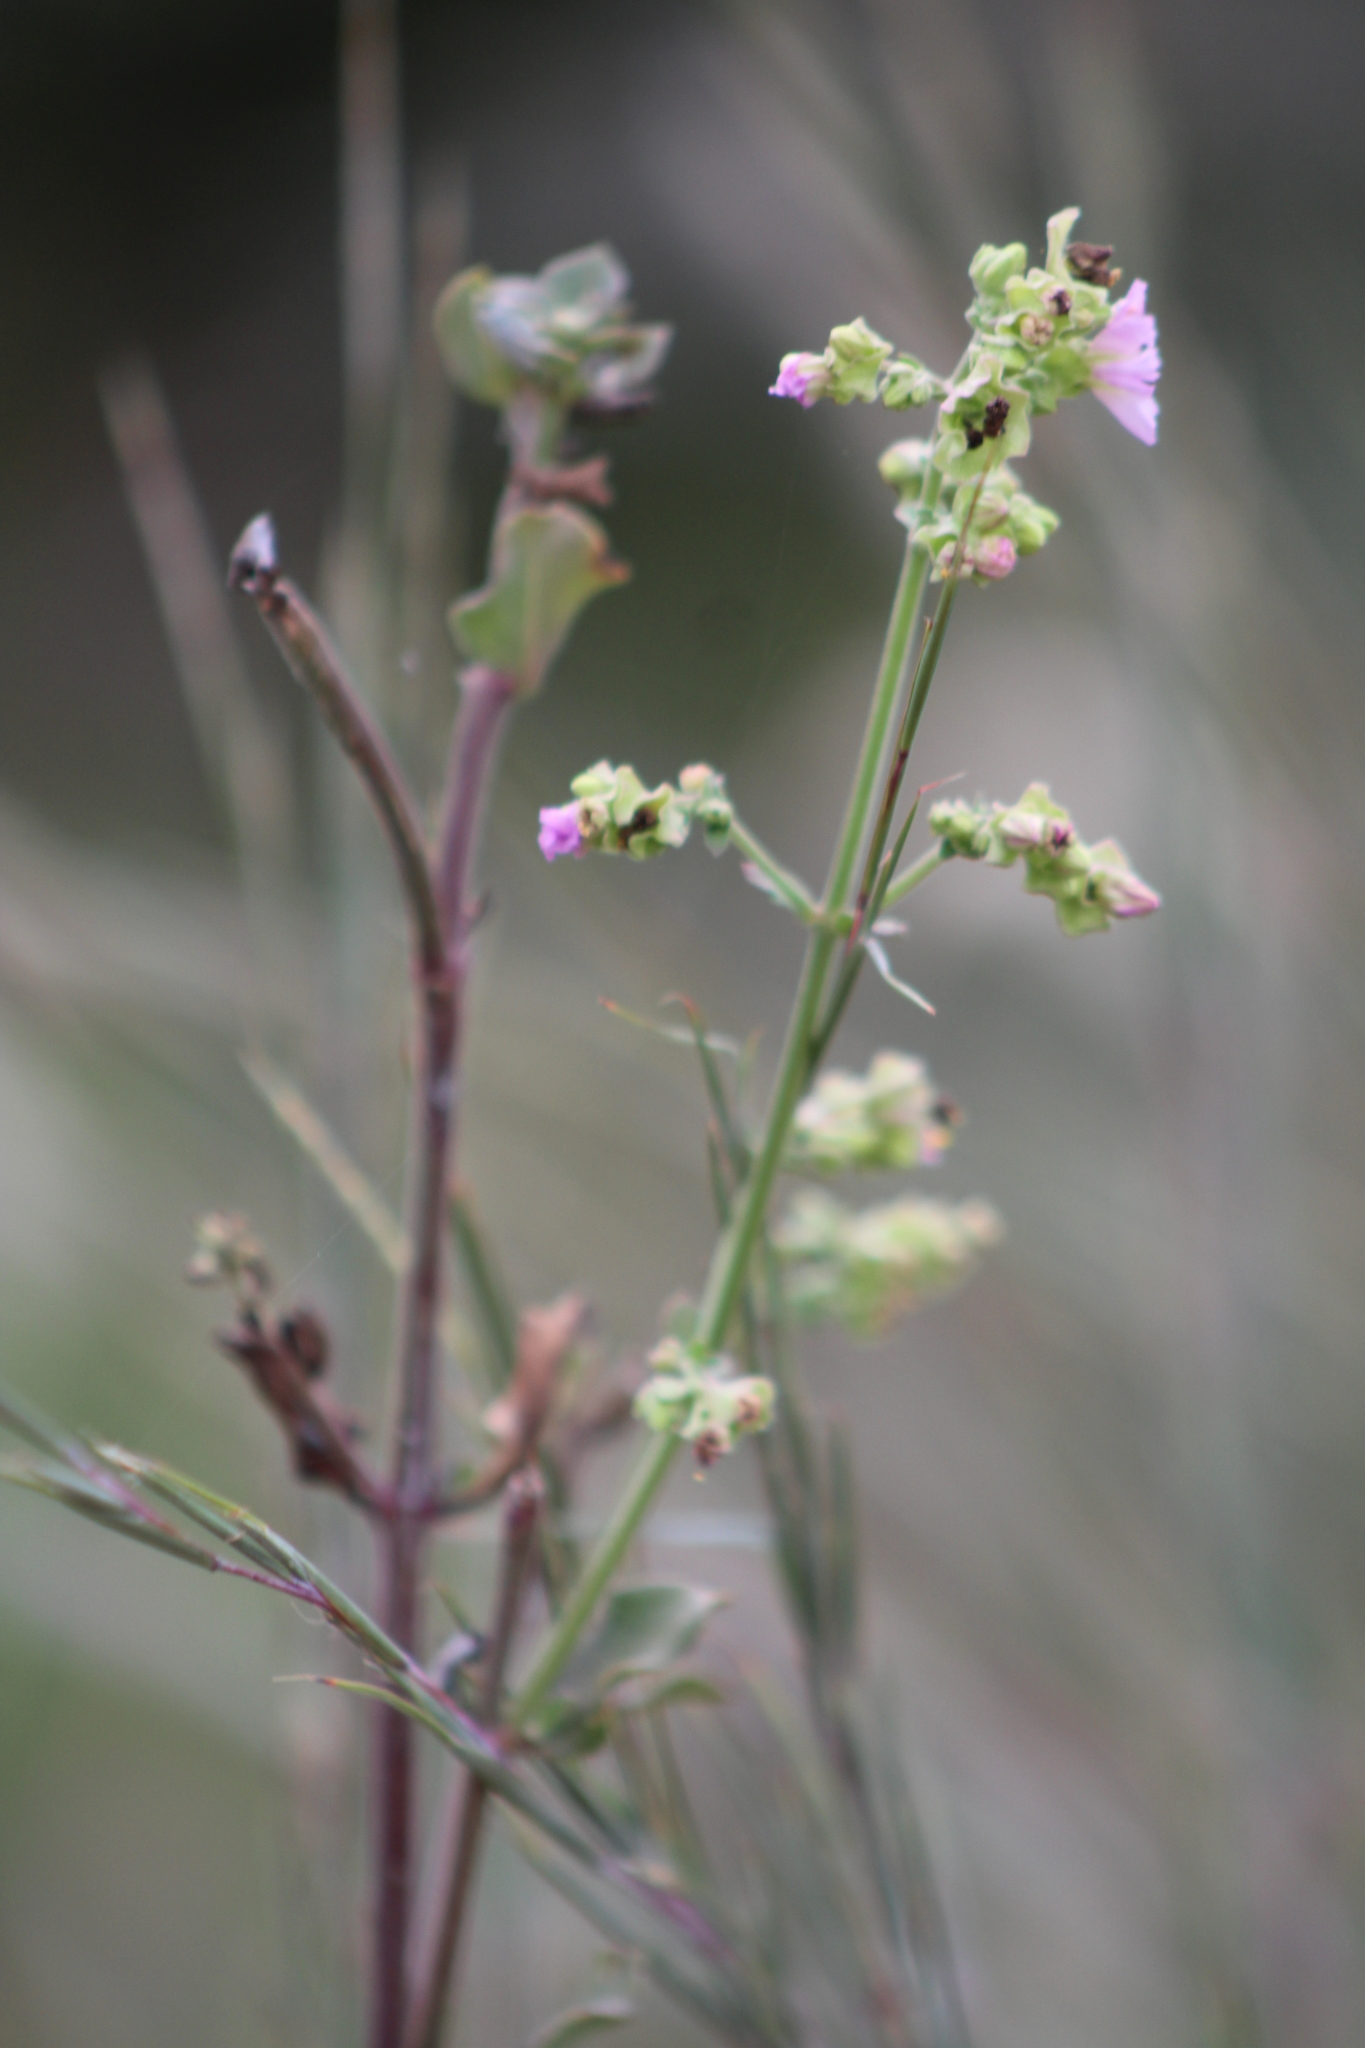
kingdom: Plantae
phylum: Tracheophyta
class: Magnoliopsida
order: Caryophyllales
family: Nyctaginaceae
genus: Mirabilis
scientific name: Mirabilis
